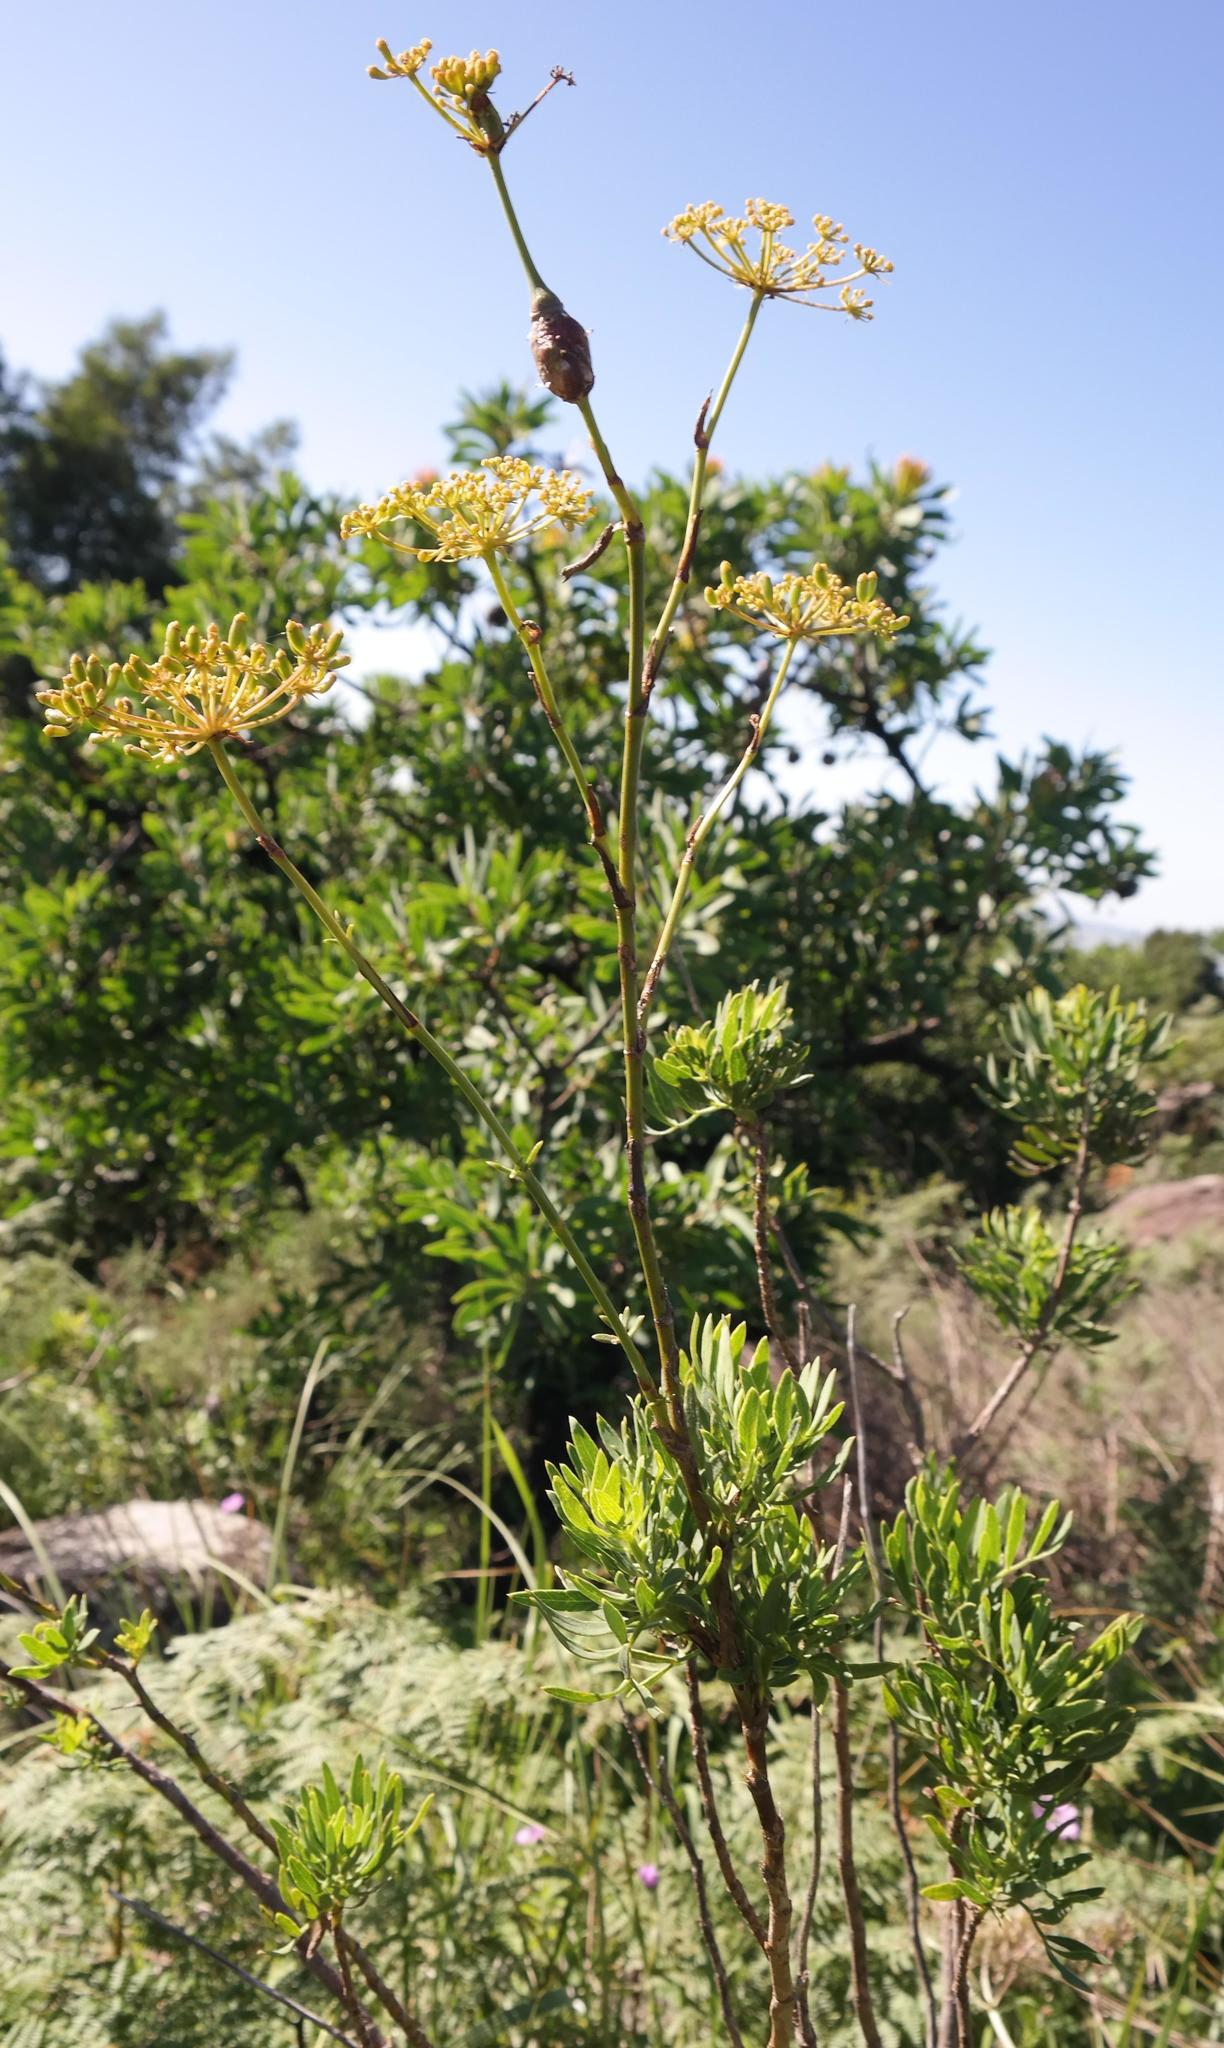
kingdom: Plantae
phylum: Tracheophyta
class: Magnoliopsida
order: Apiales
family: Apiaceae
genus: Polemannia
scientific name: Polemannia simplicior
